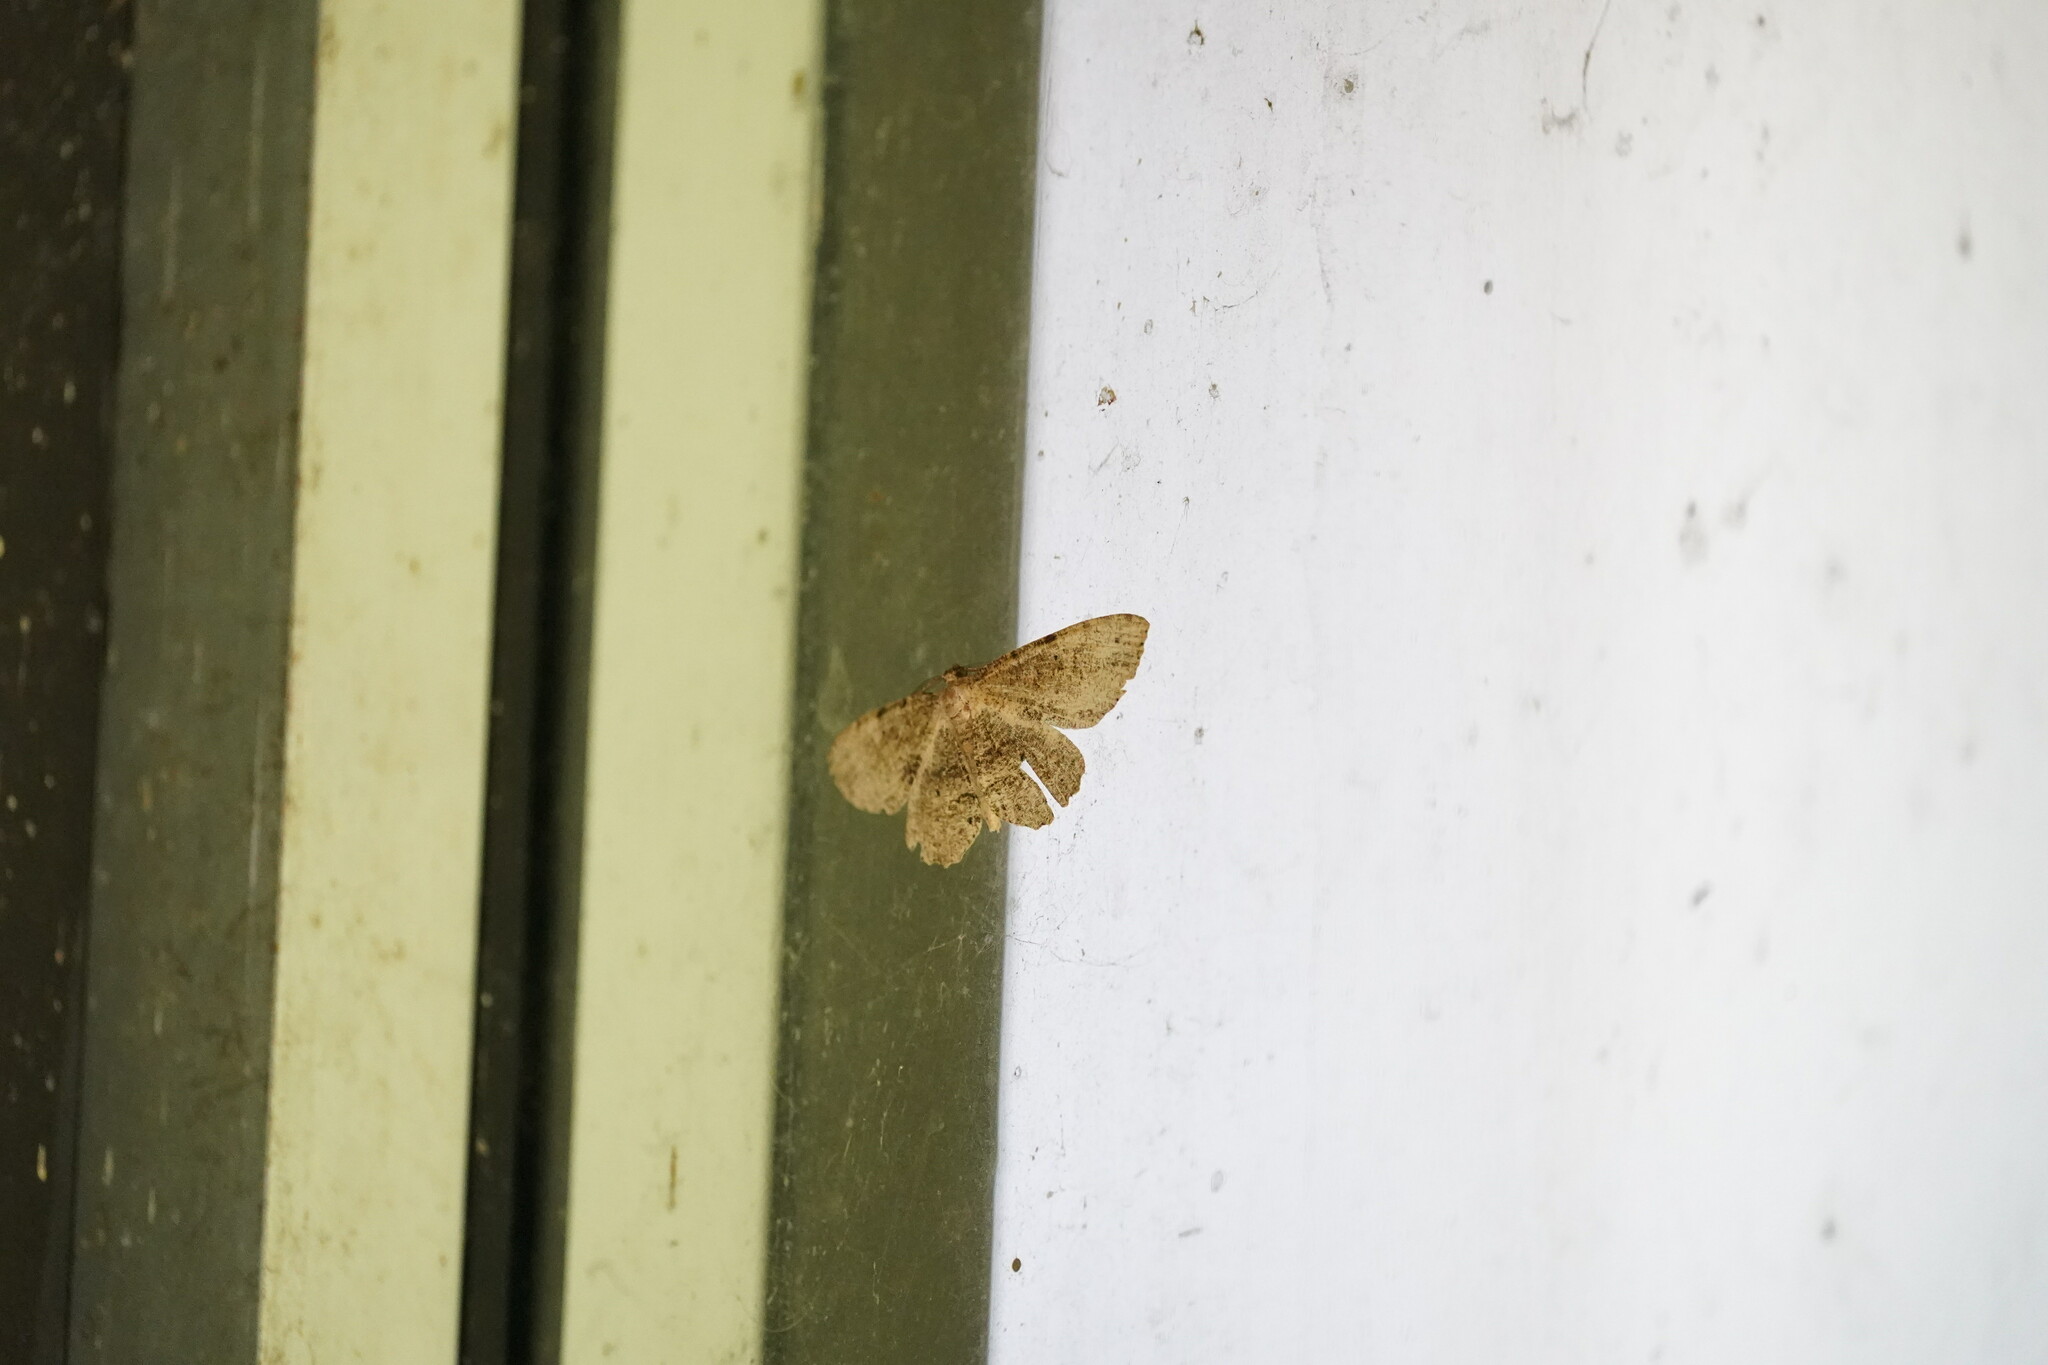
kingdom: Animalia
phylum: Arthropoda
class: Insecta
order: Lepidoptera
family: Geometridae
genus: Protoboarmia
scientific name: Protoboarmia porcelaria
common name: Porcelain gray
